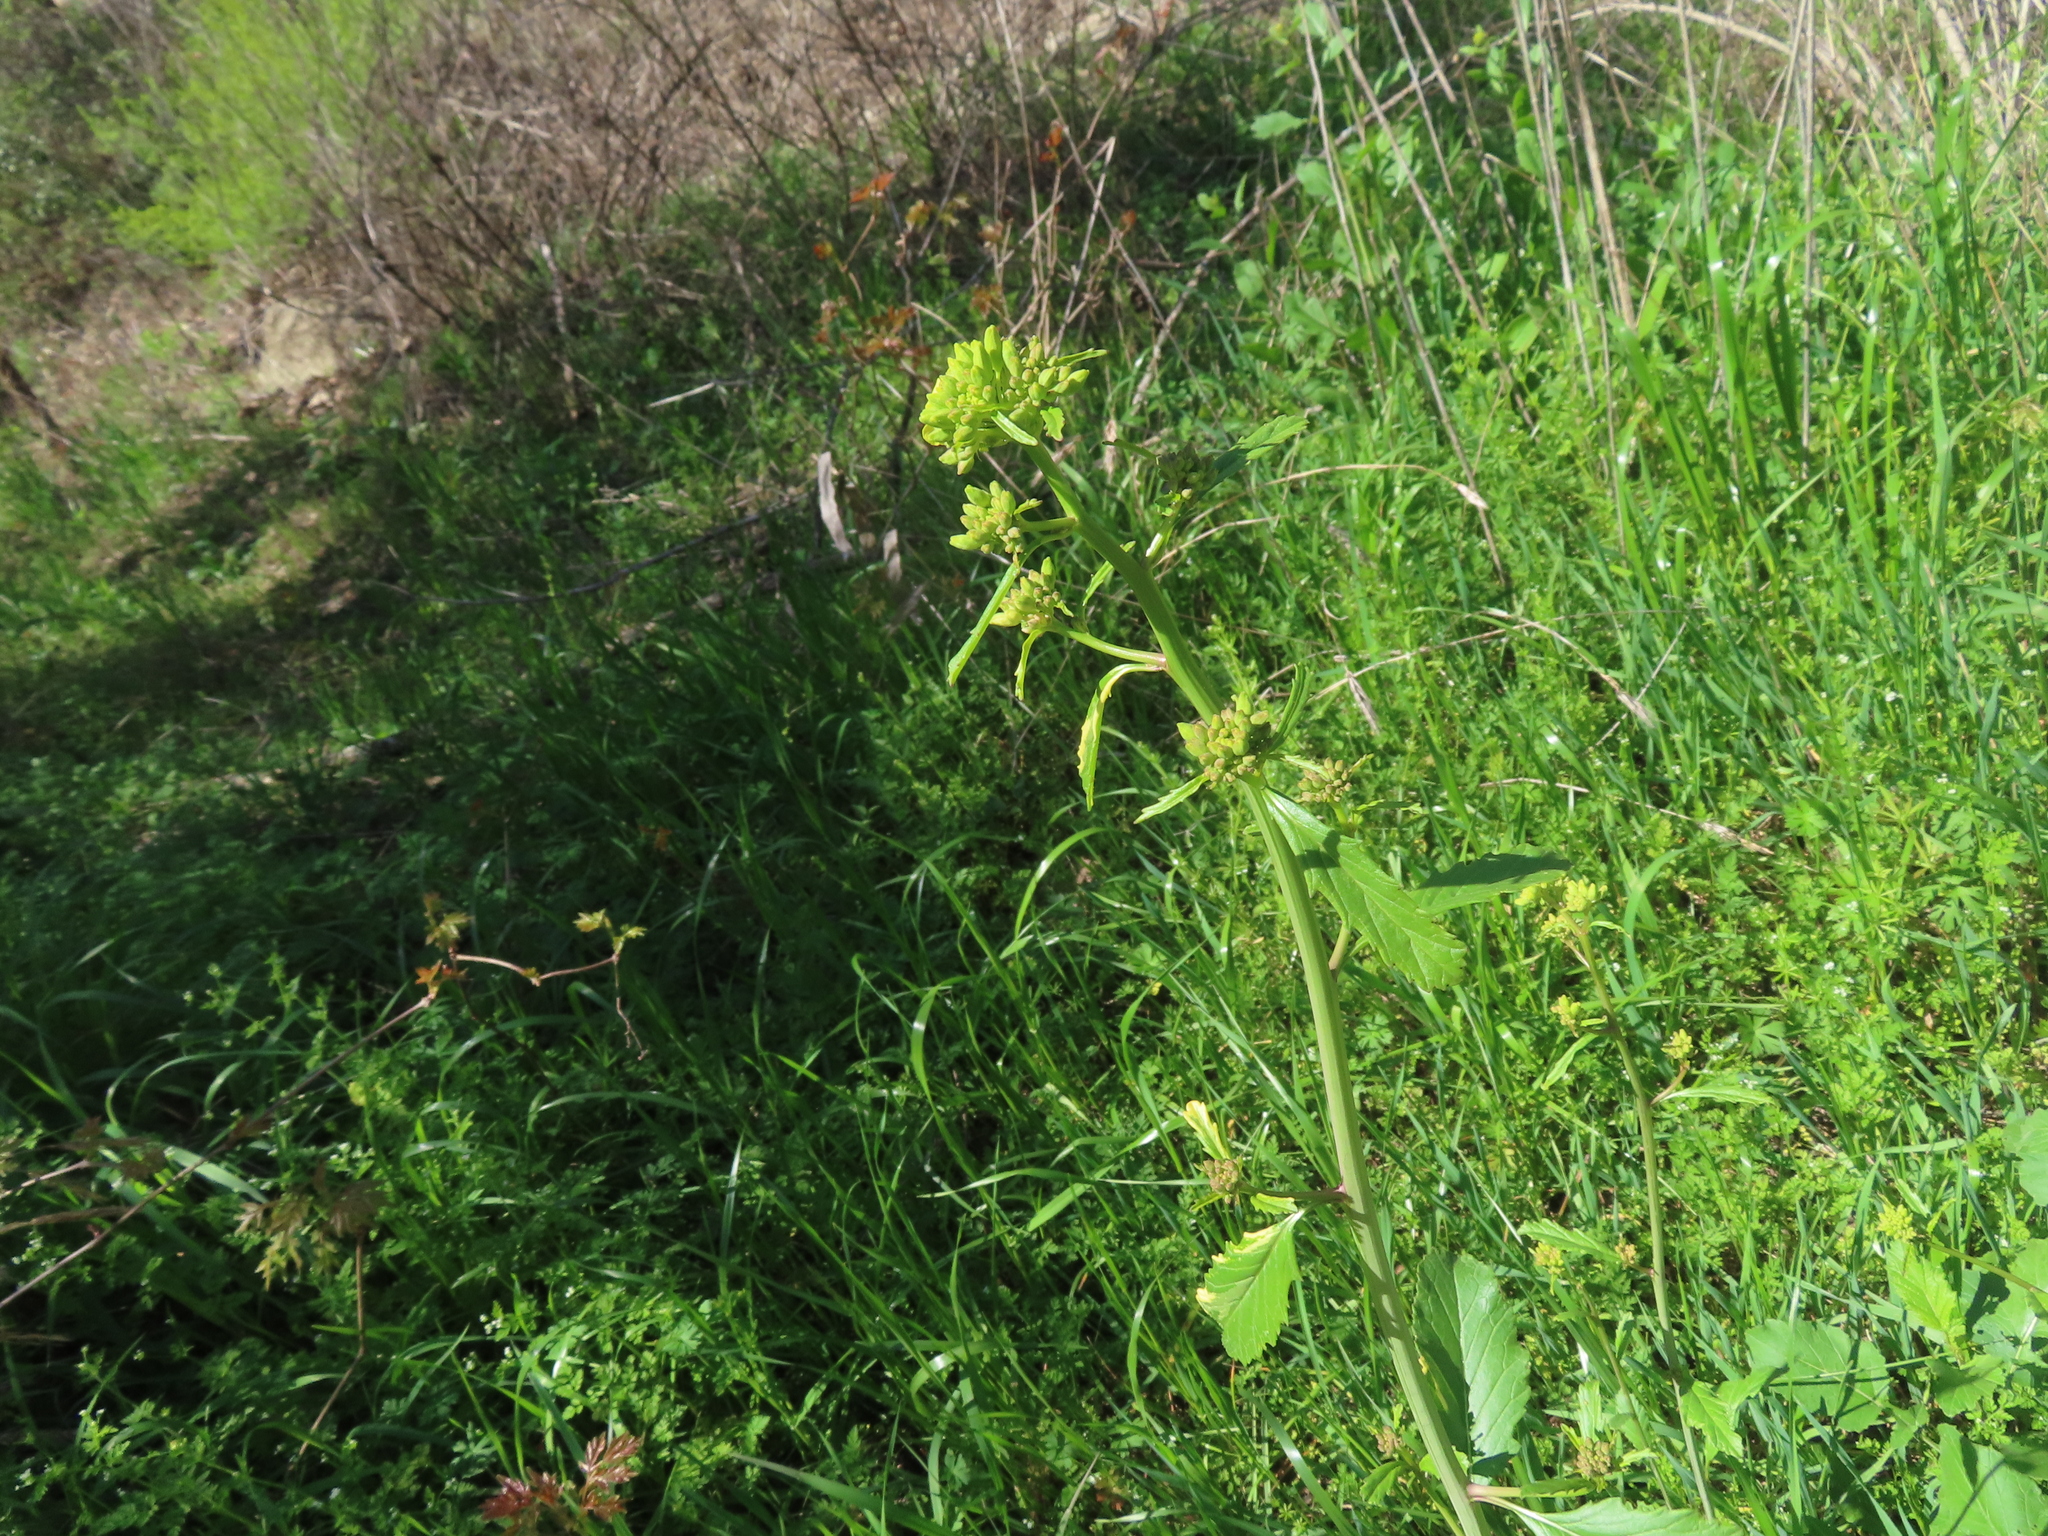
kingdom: Plantae
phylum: Tracheophyta
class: Magnoliopsida
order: Brassicales
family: Brassicaceae
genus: Rapistrum
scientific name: Rapistrum rugosum
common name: Annual bastardcabbage
